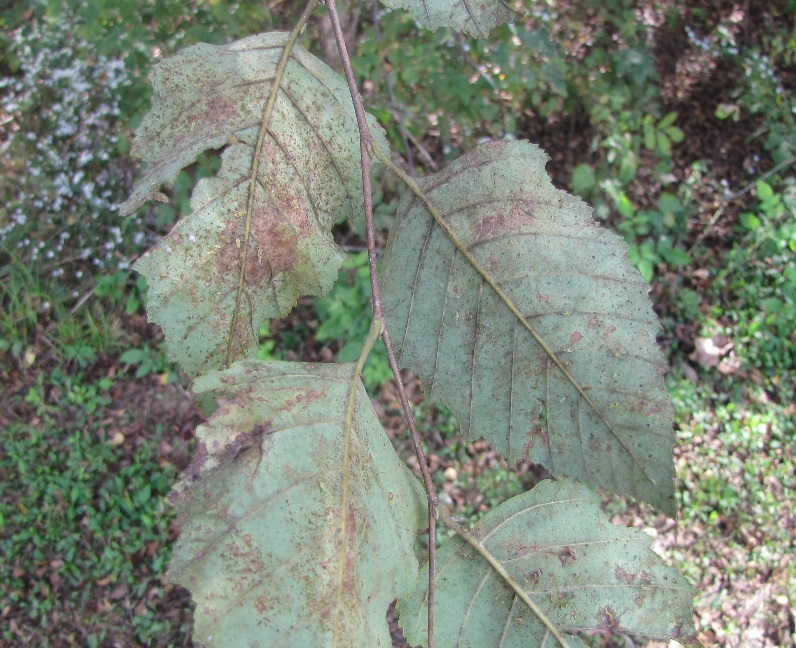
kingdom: Plantae
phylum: Tracheophyta
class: Magnoliopsida
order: Fagales
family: Betulaceae
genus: Betula
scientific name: Betula nigra
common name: Black birch
